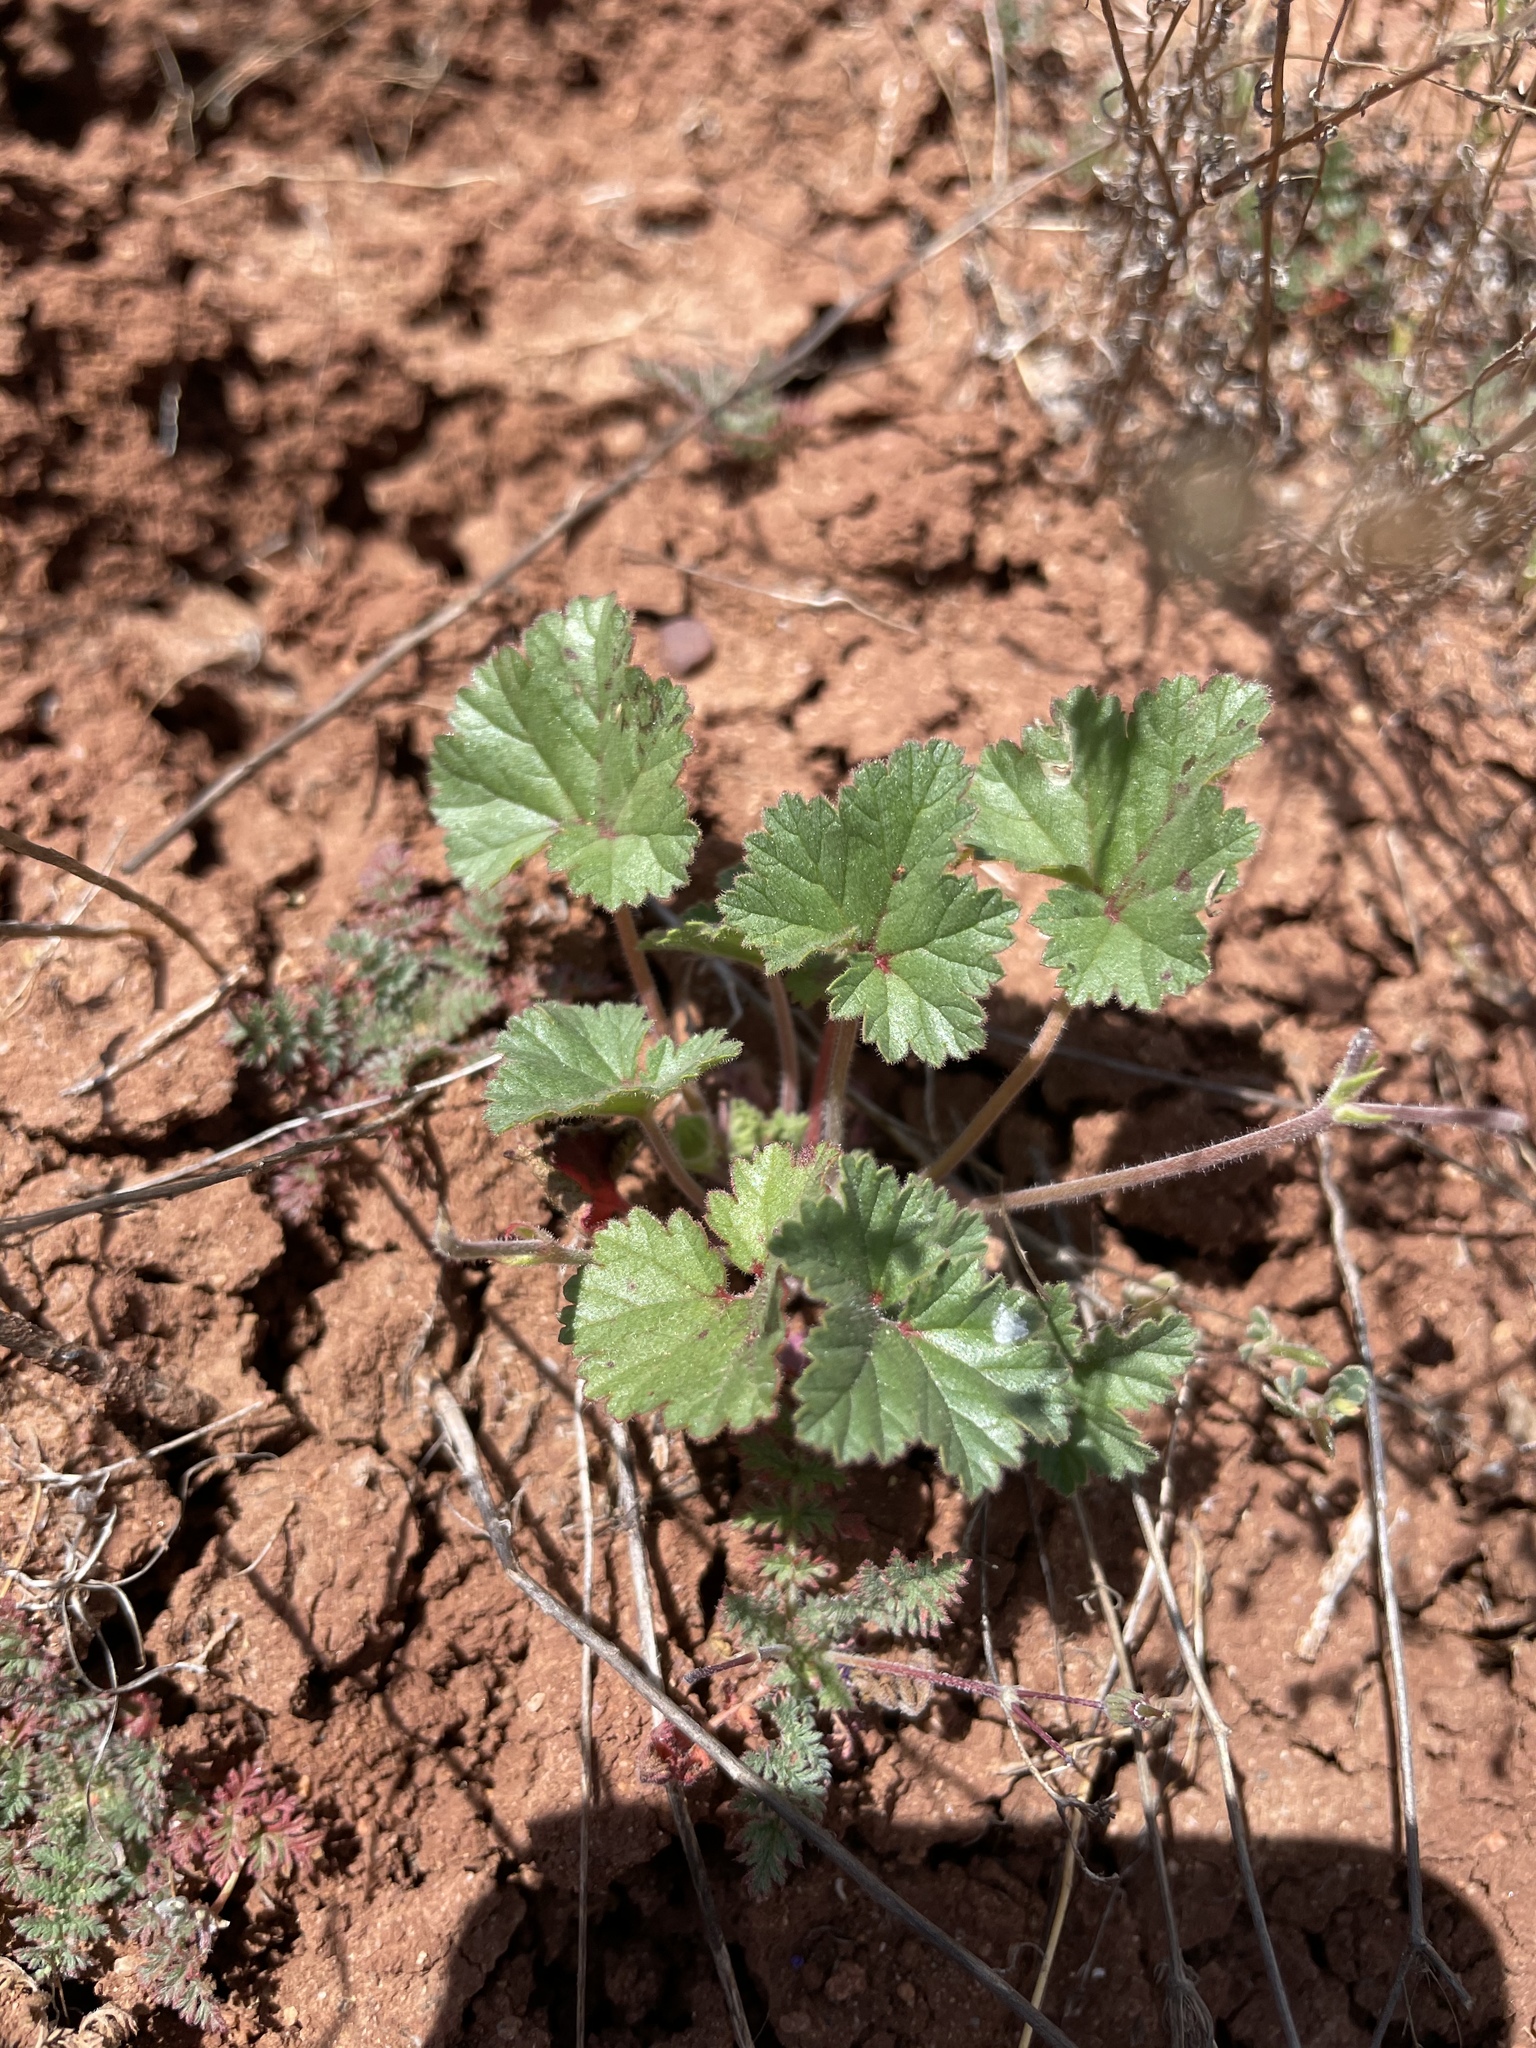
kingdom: Plantae
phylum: Tracheophyta
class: Magnoliopsida
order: Geraniales
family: Geraniaceae
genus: California
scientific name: California macrophylla
